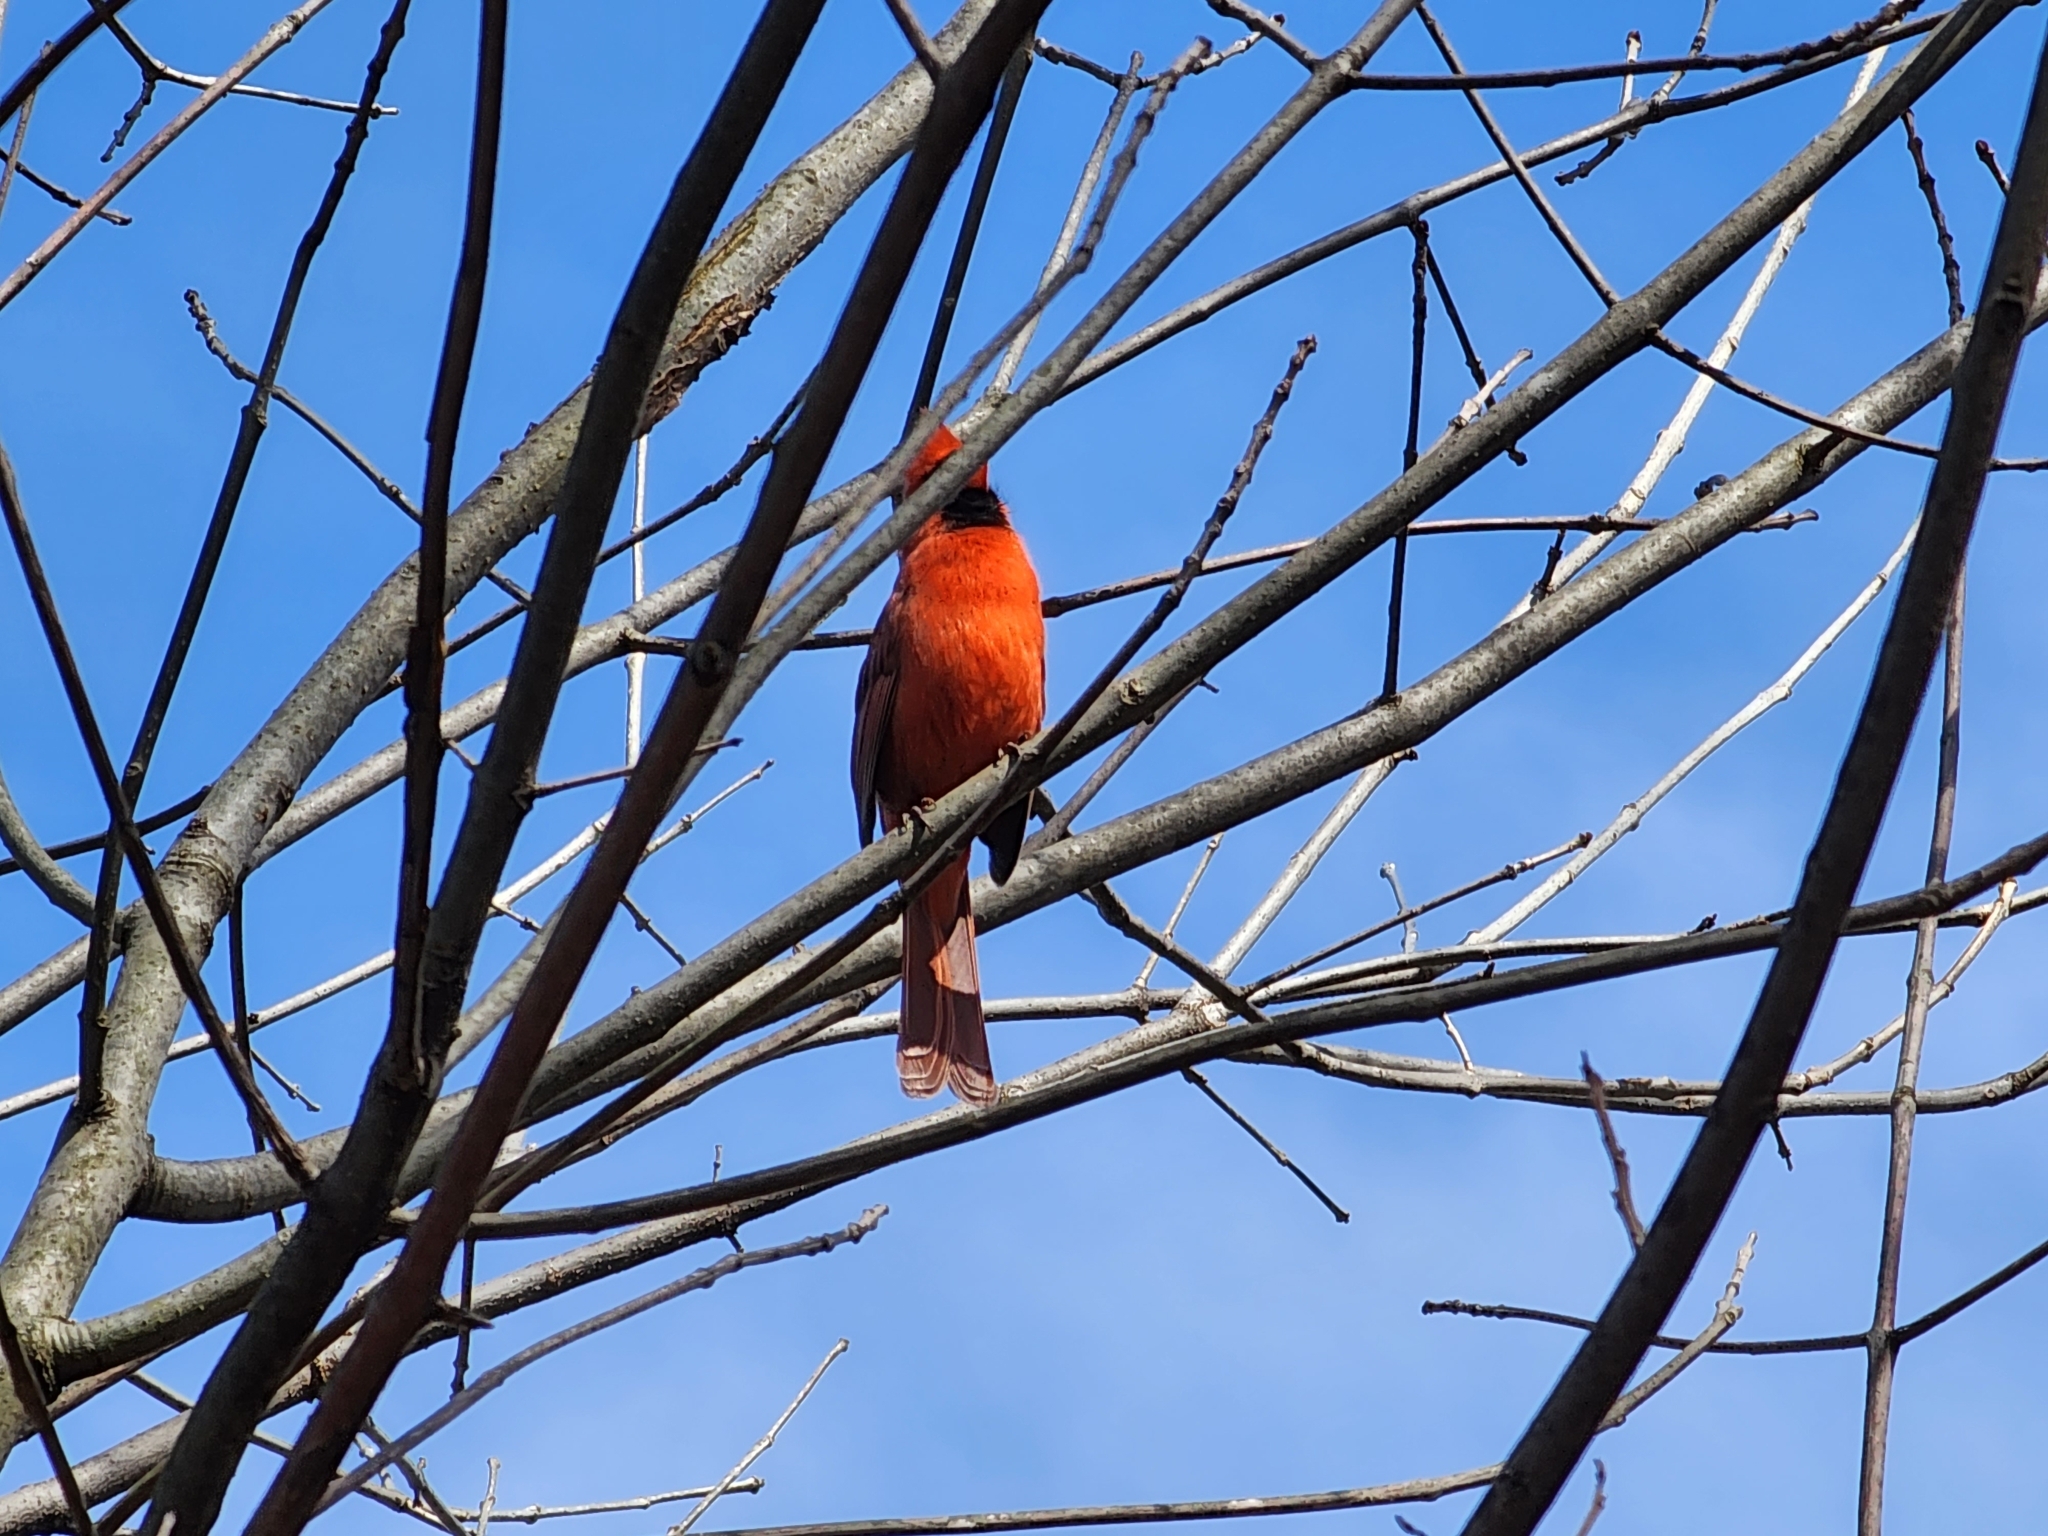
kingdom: Animalia
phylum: Chordata
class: Aves
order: Passeriformes
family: Cardinalidae
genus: Cardinalis
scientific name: Cardinalis cardinalis
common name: Northern cardinal
